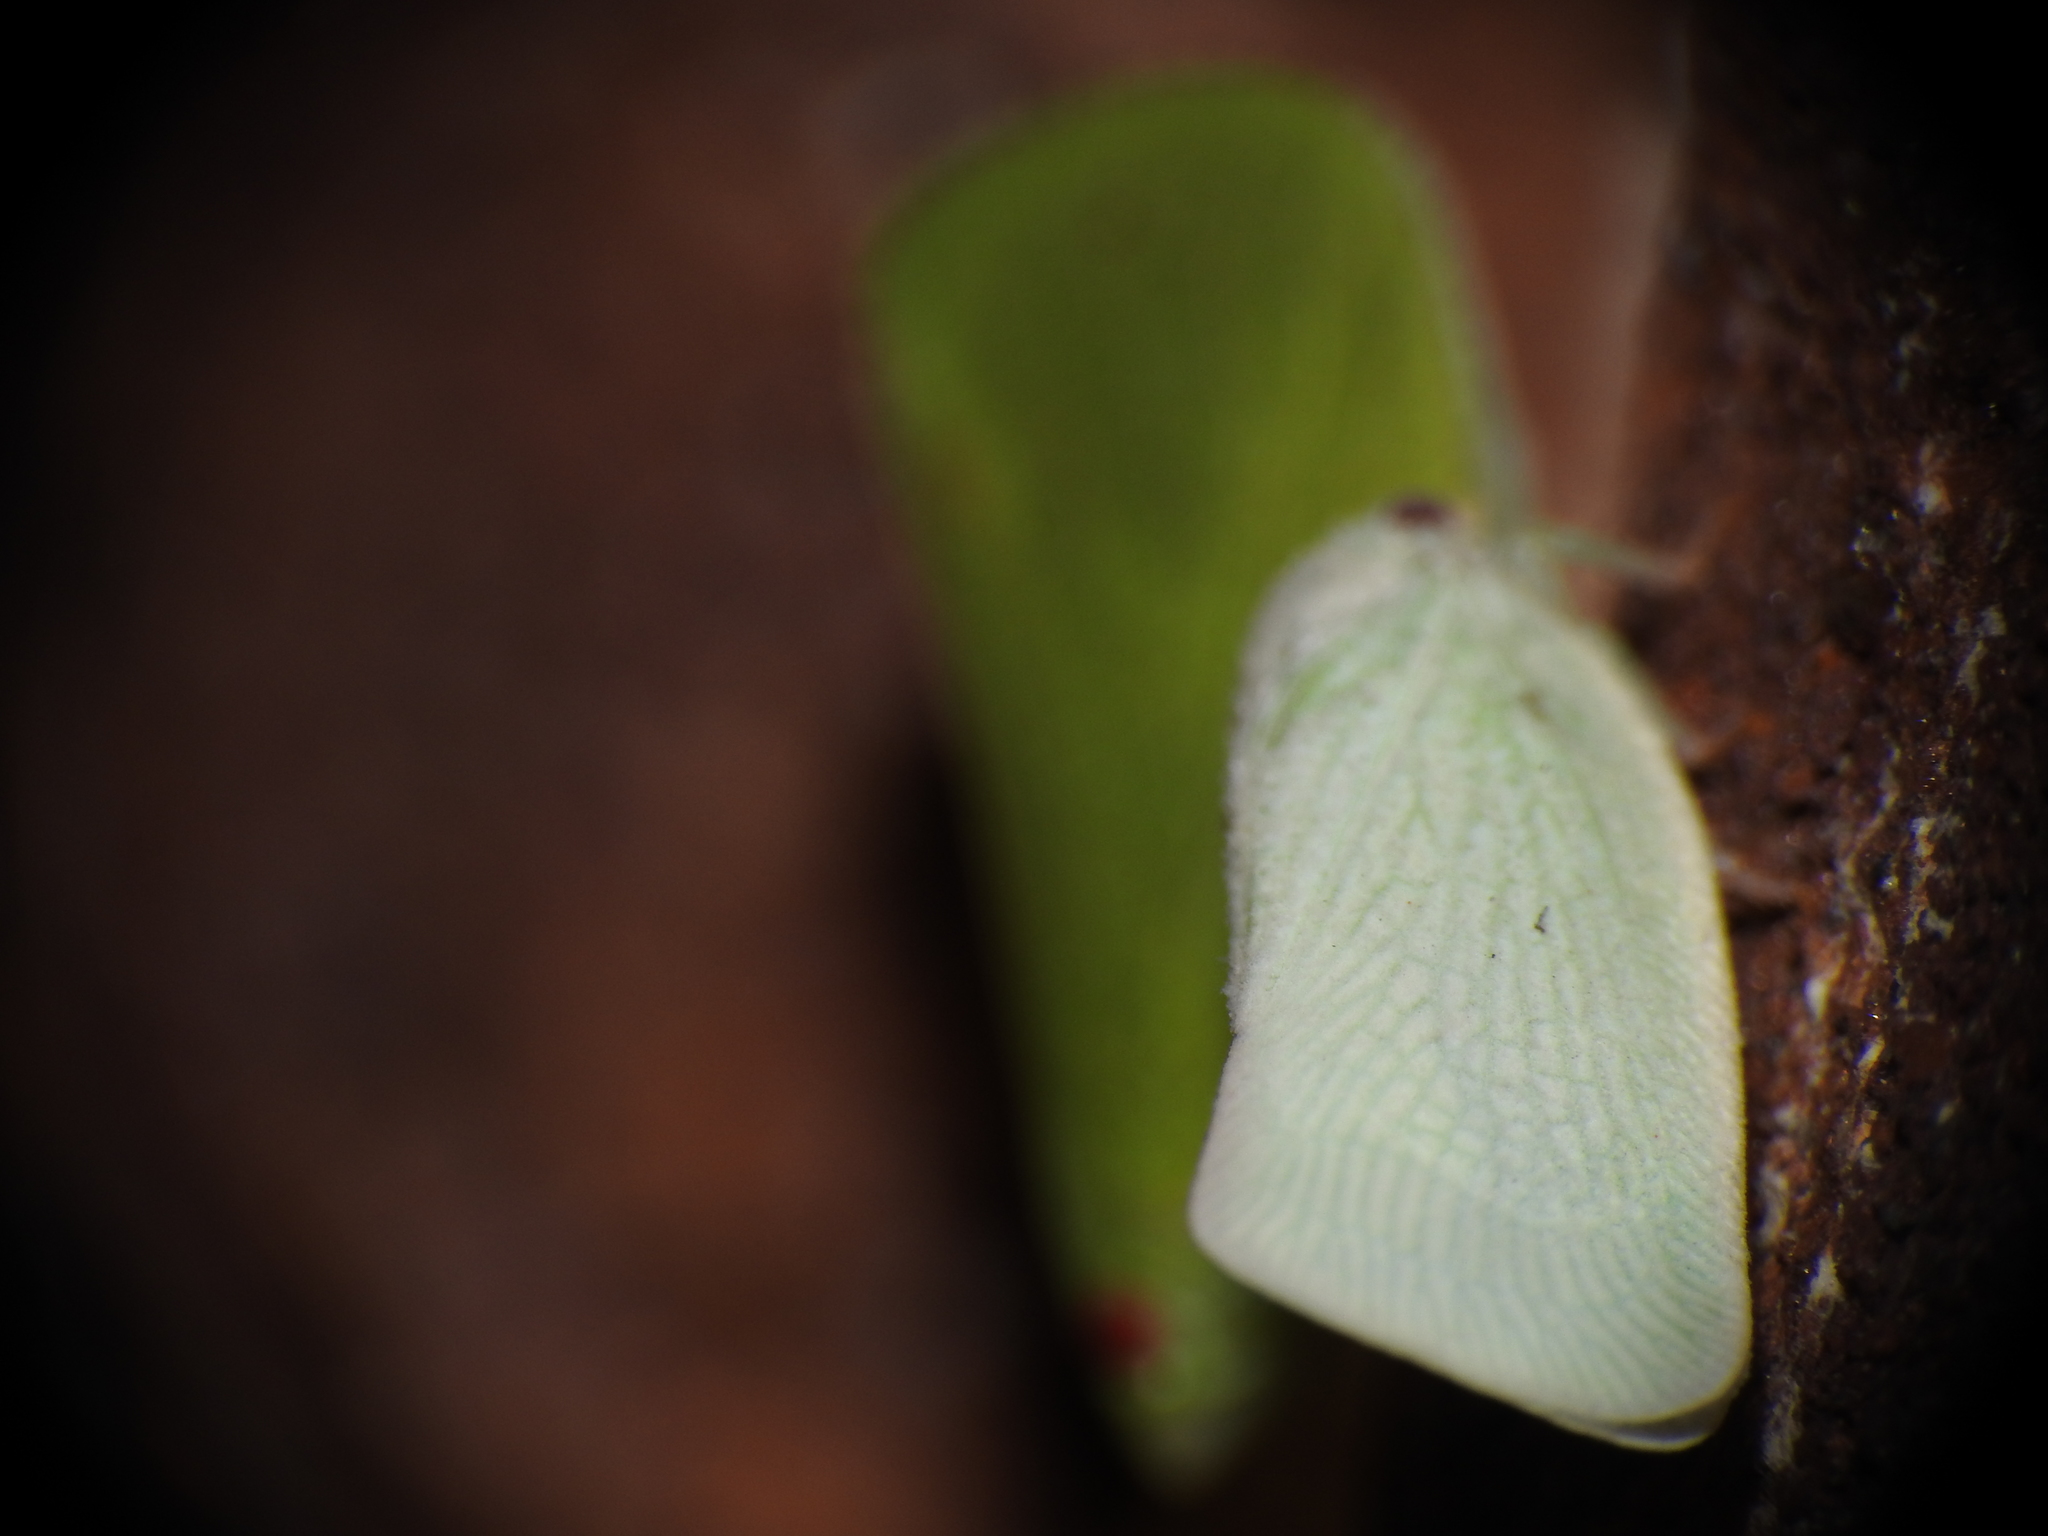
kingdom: Animalia
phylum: Arthropoda
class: Insecta
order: Hemiptera
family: Flatidae
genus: Flatormenis
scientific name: Flatormenis proxima
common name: Northern flatid planthopper
